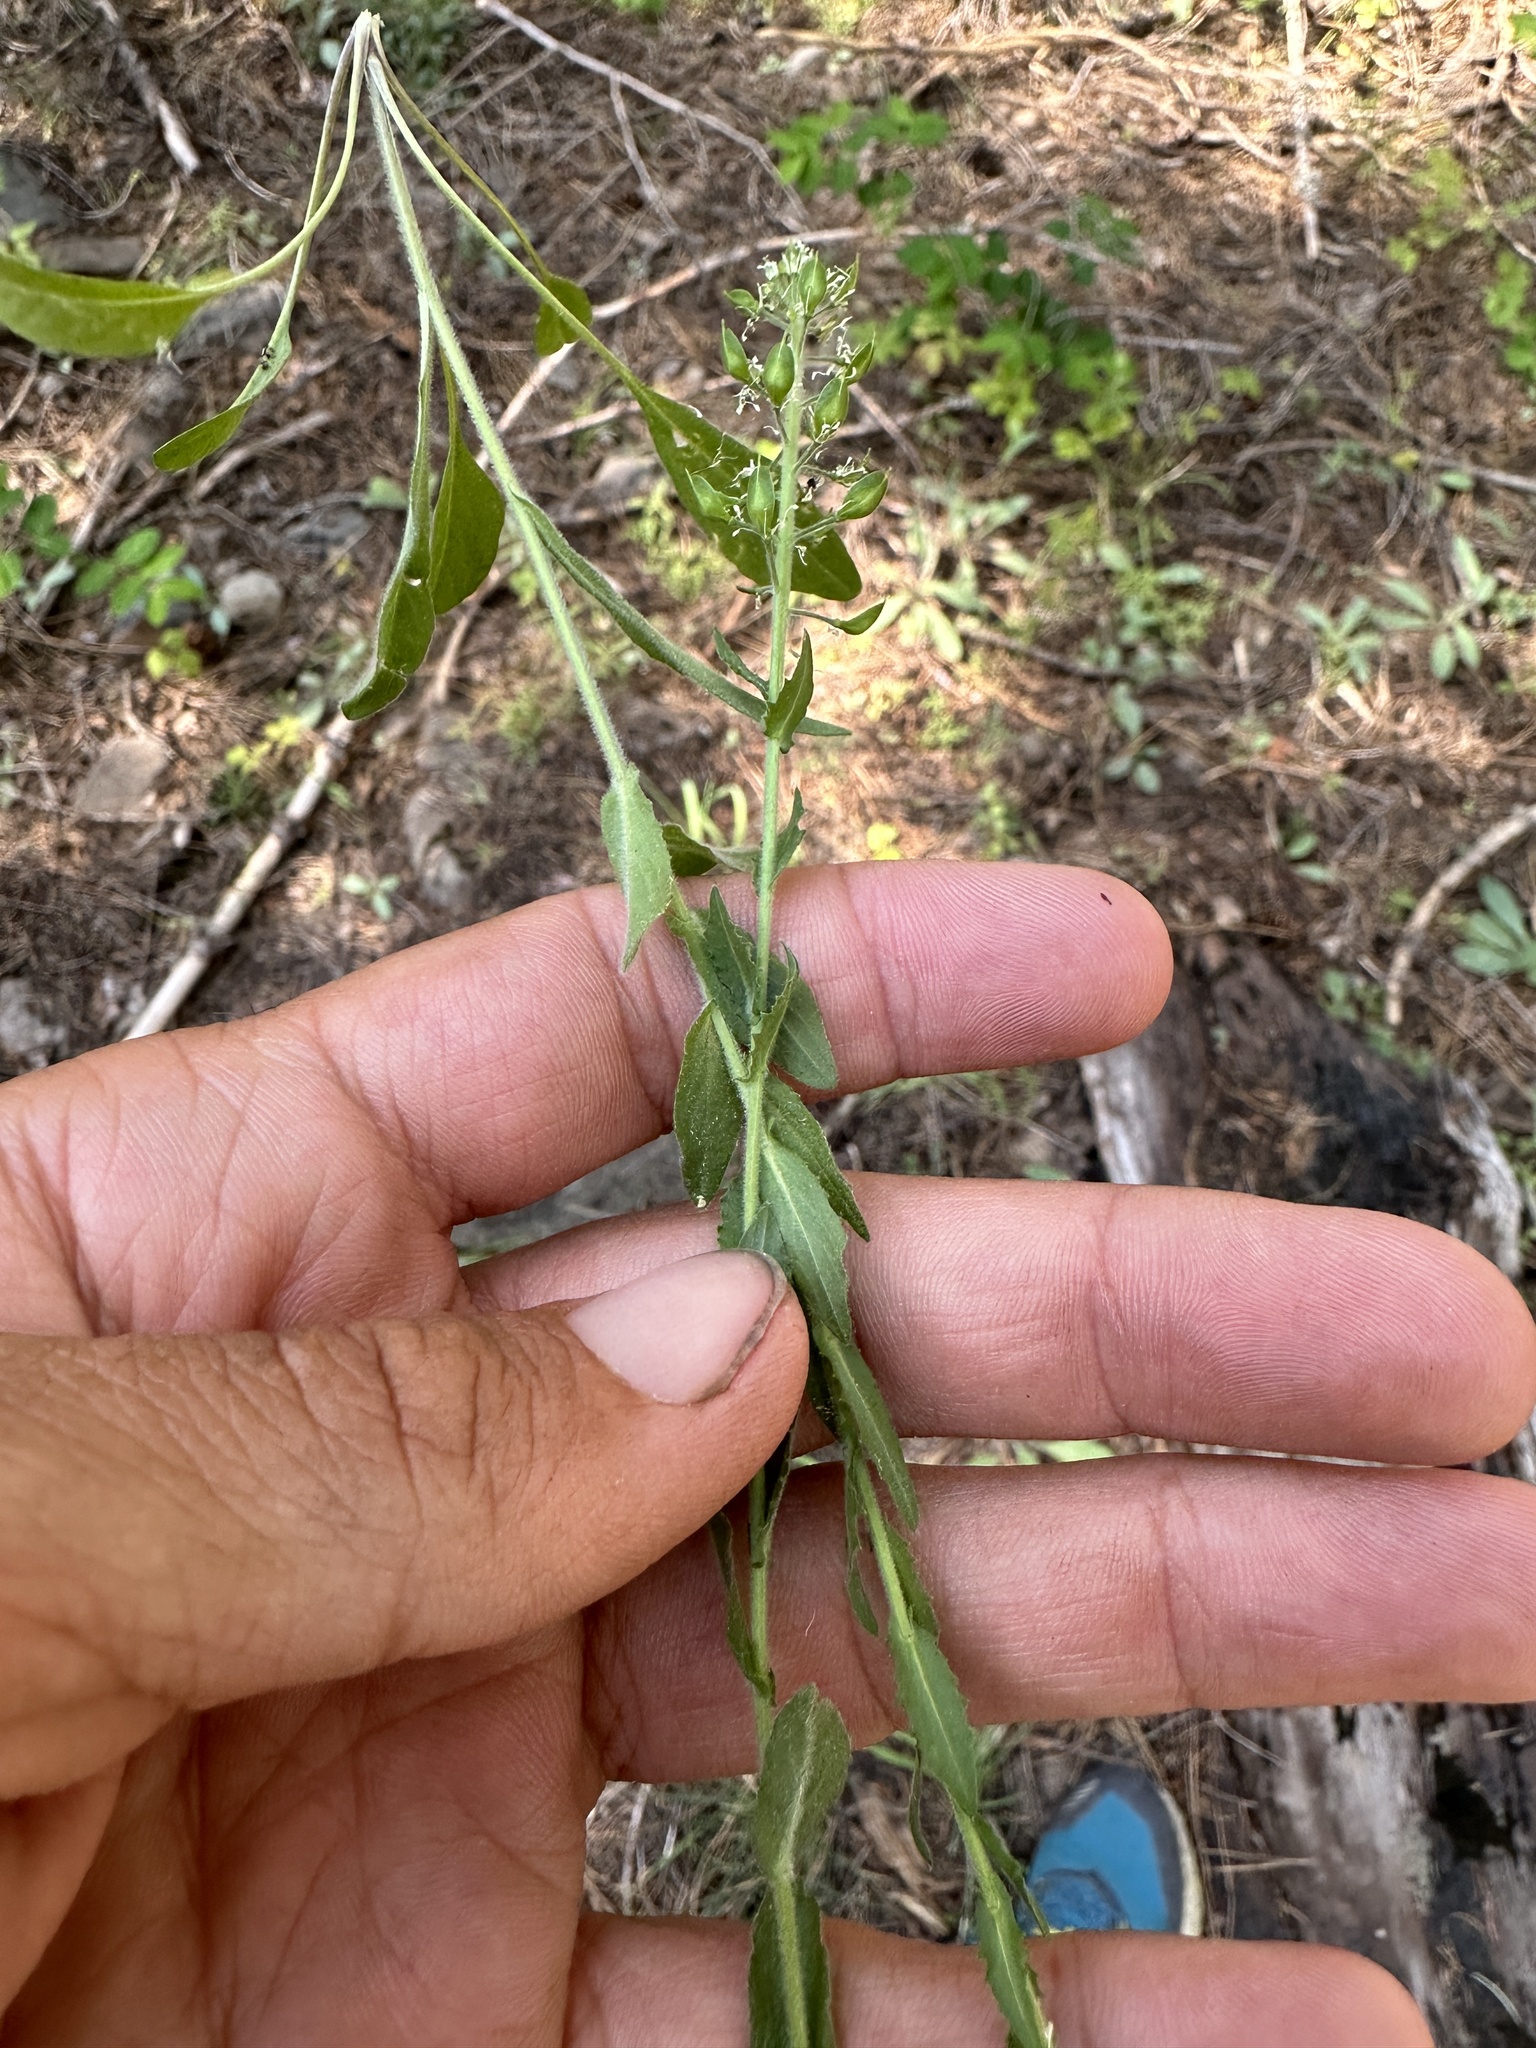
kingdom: Plantae
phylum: Tracheophyta
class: Magnoliopsida
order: Brassicales
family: Brassicaceae
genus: Lepidium
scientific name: Lepidium heterophyllum
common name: Smith's pepperwort
